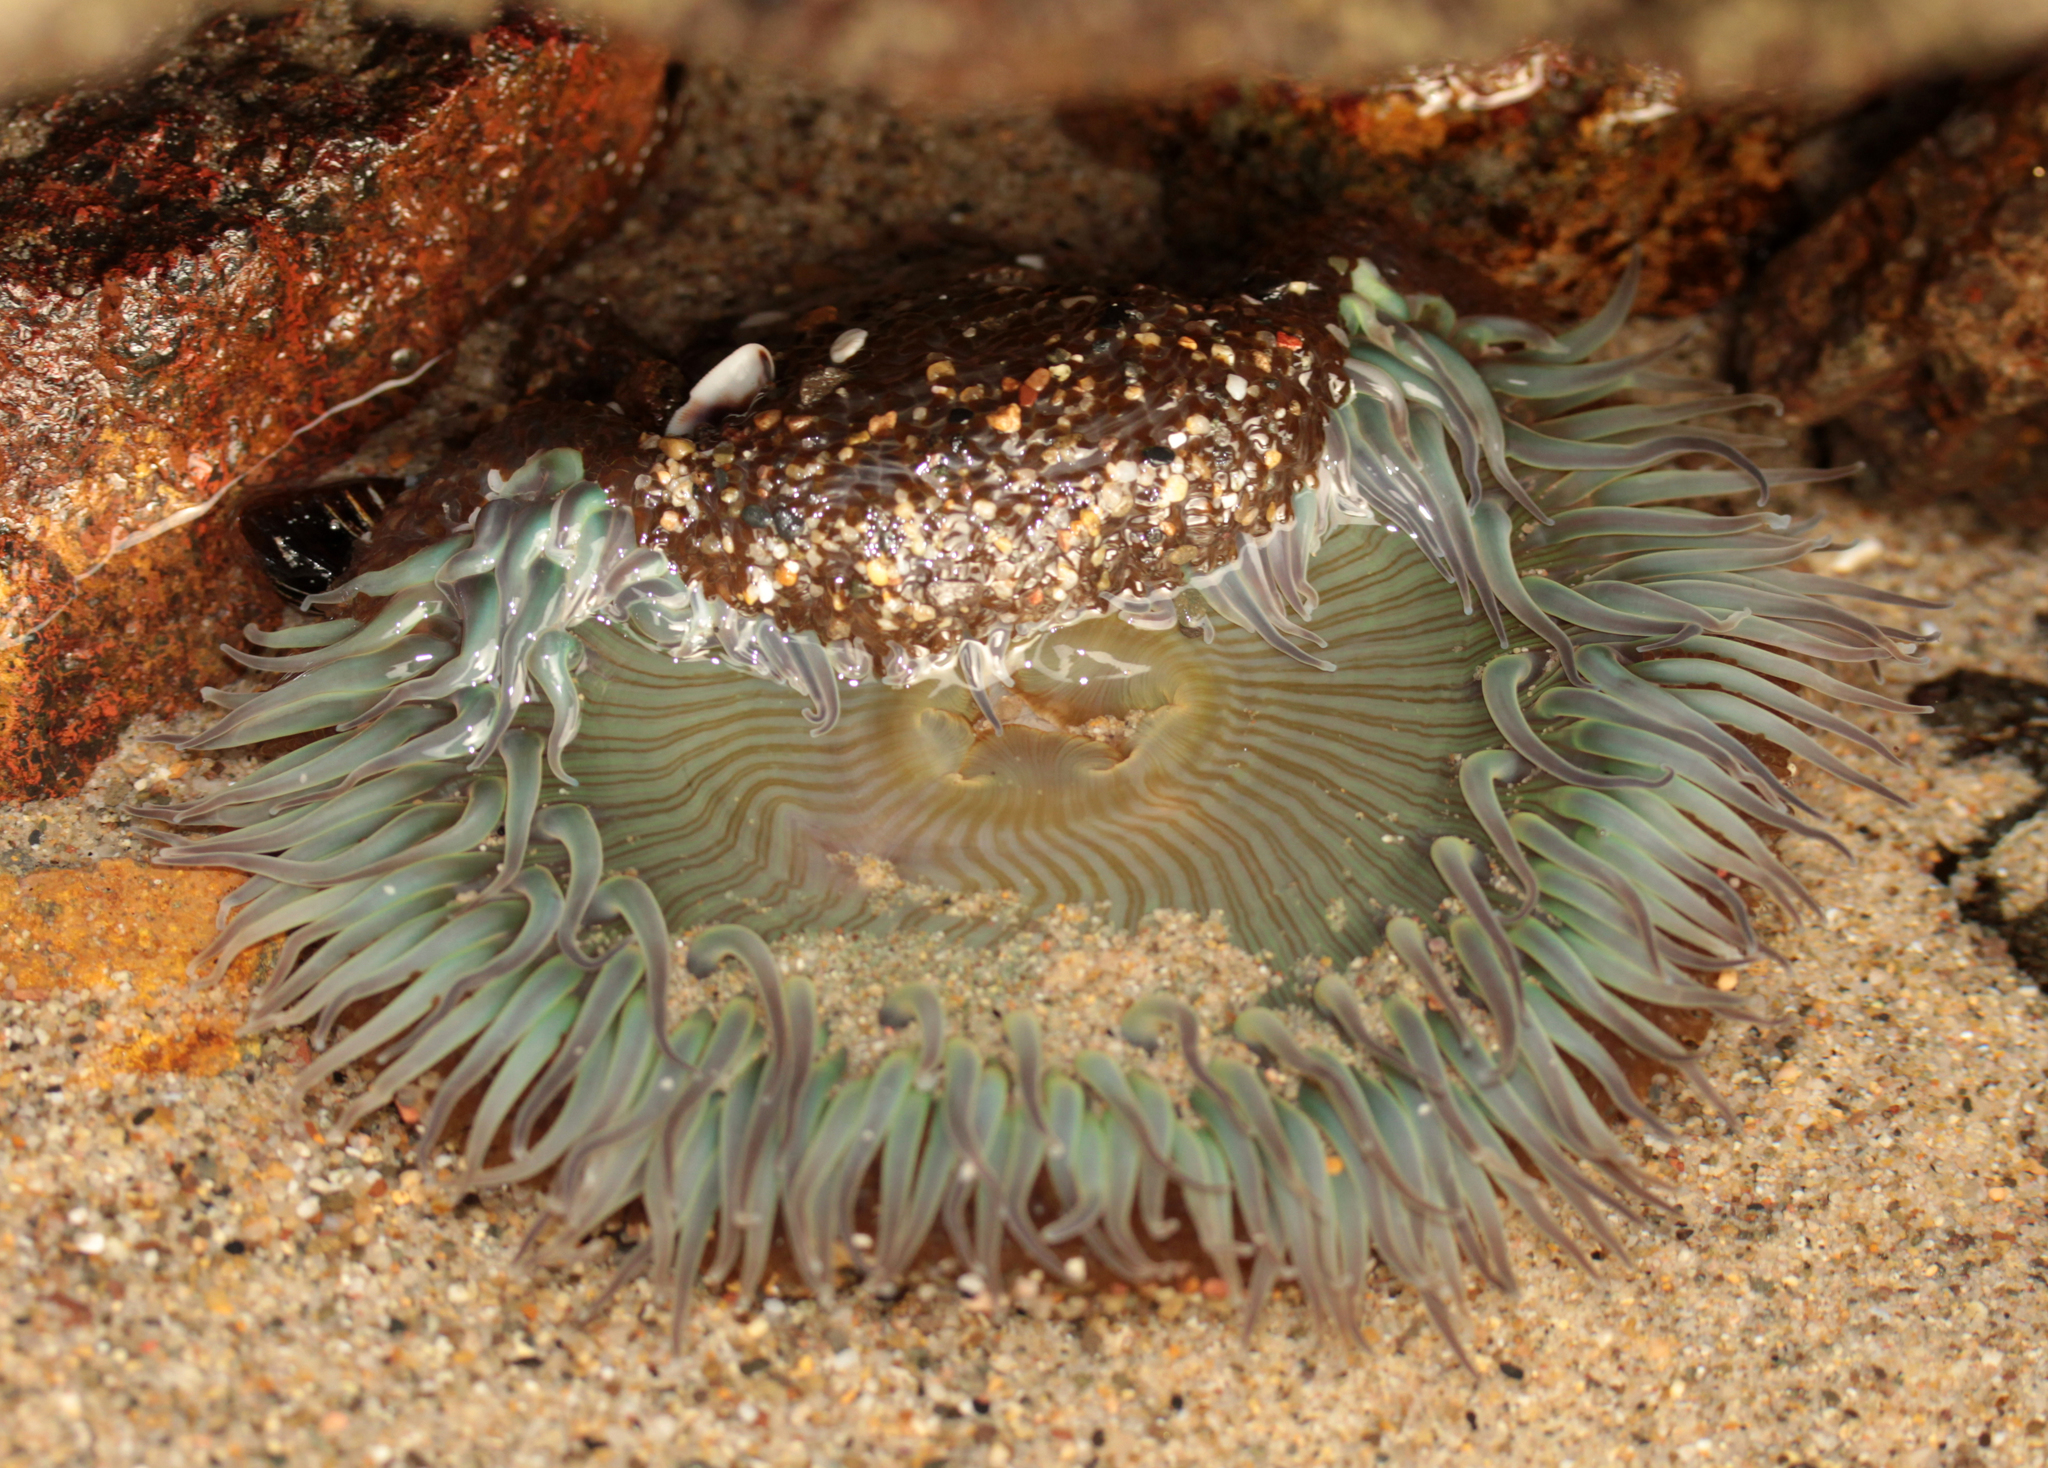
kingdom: Animalia
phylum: Cnidaria
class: Anthozoa
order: Actiniaria
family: Actiniidae
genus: Anthopleura
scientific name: Anthopleura sola
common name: Sun anemone
